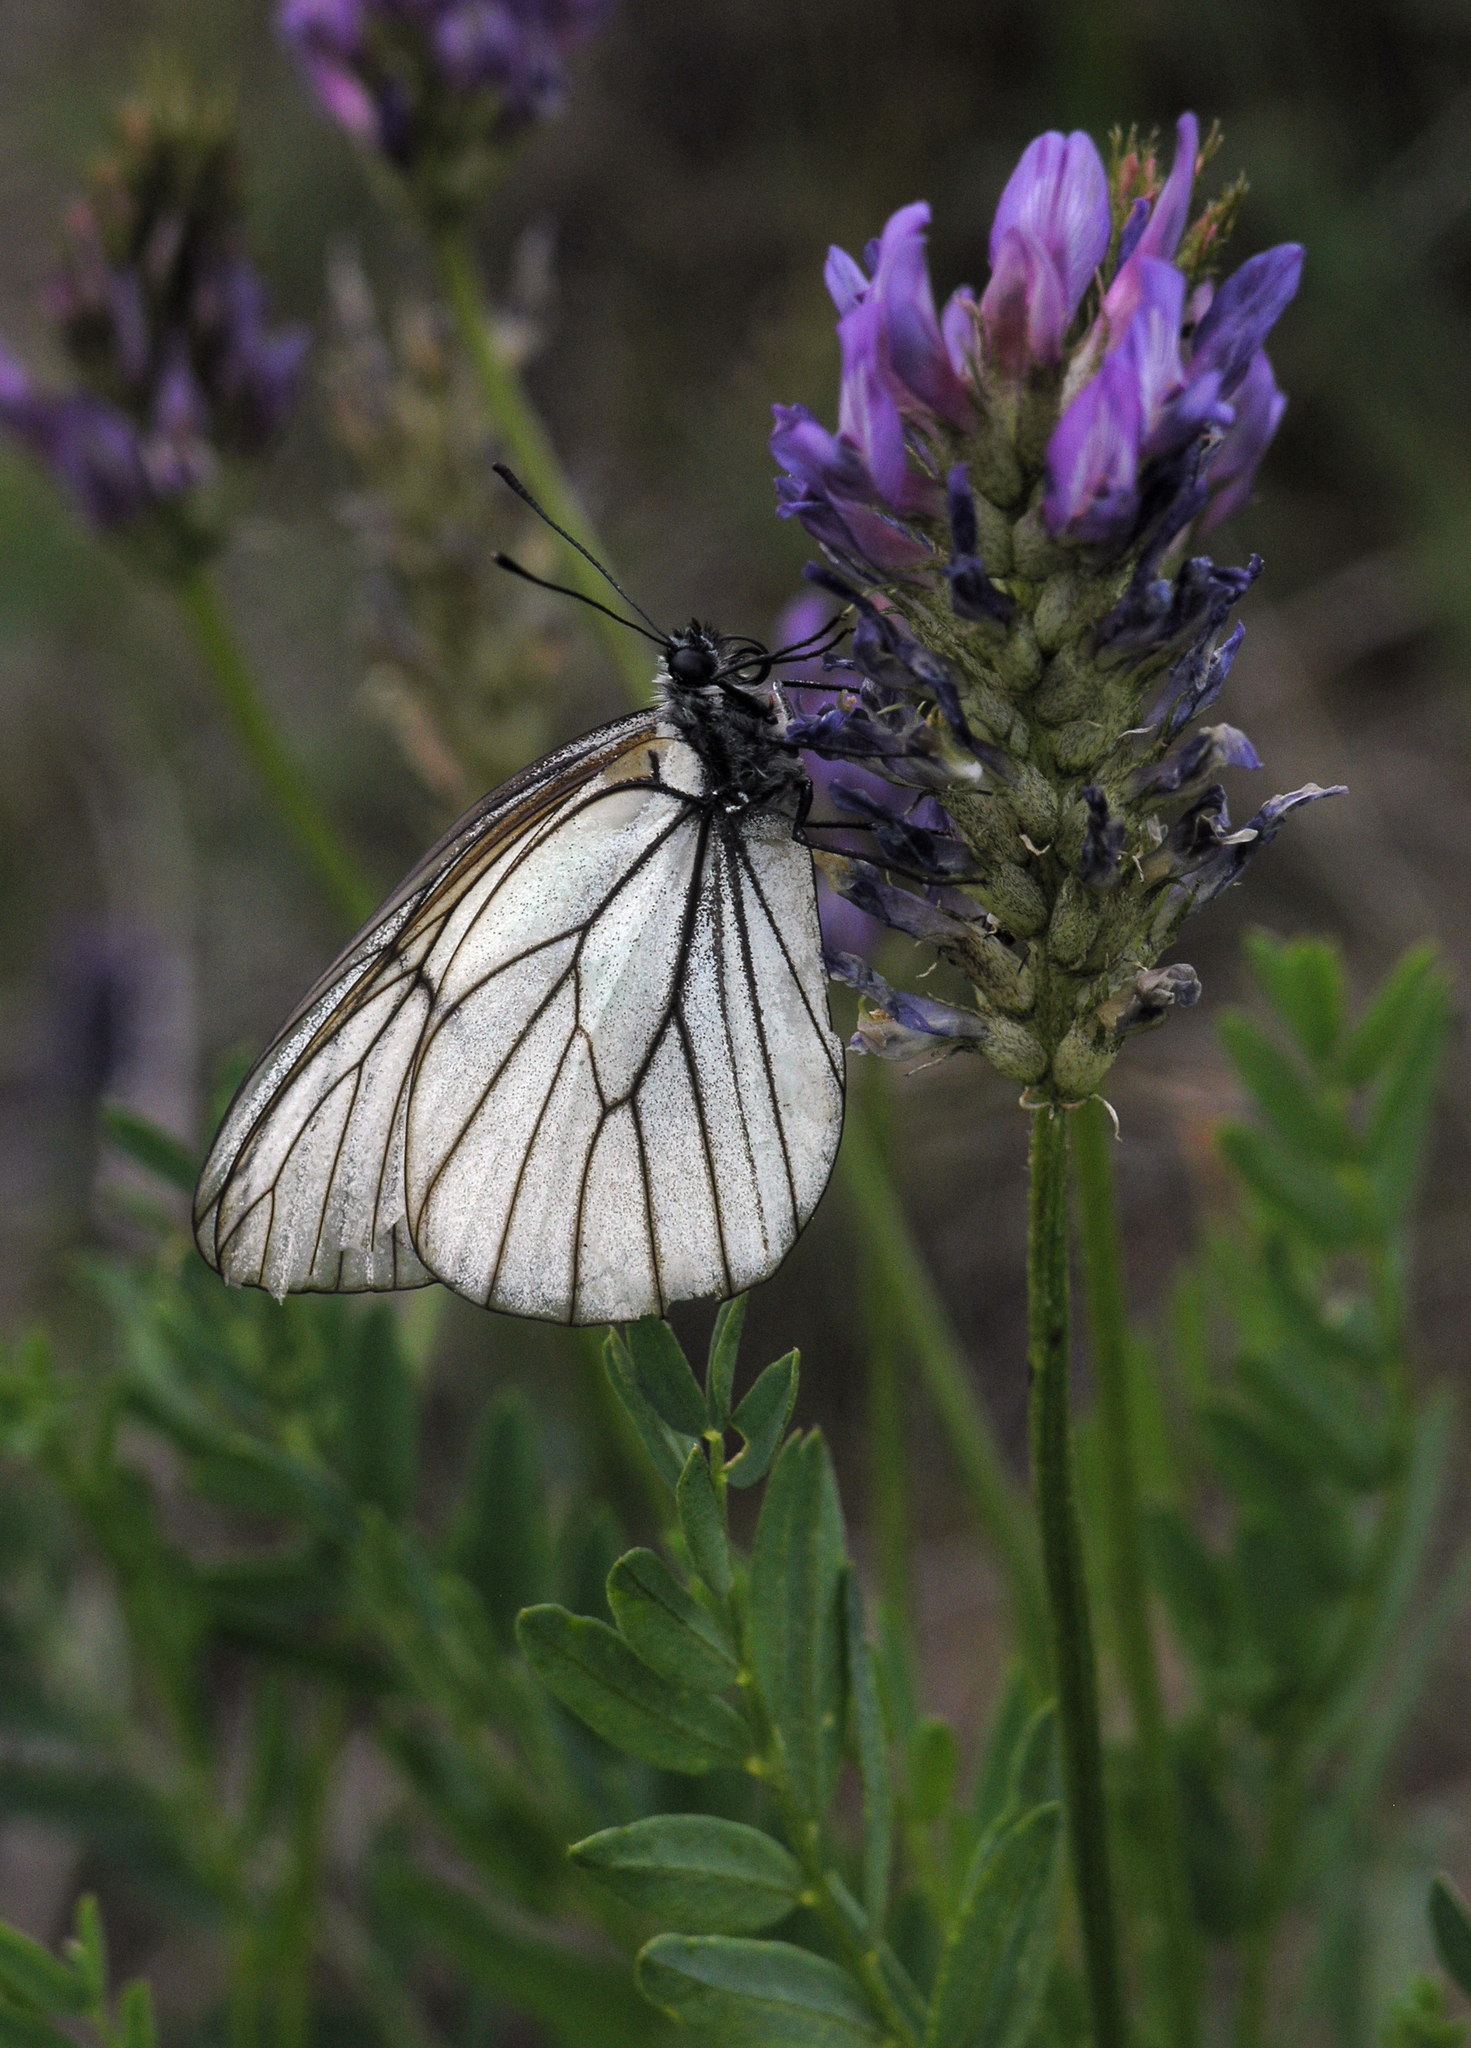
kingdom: Animalia
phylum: Arthropoda
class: Insecta
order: Lepidoptera
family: Pieridae
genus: Aporia
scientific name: Aporia crataegi
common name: Black-veined white
